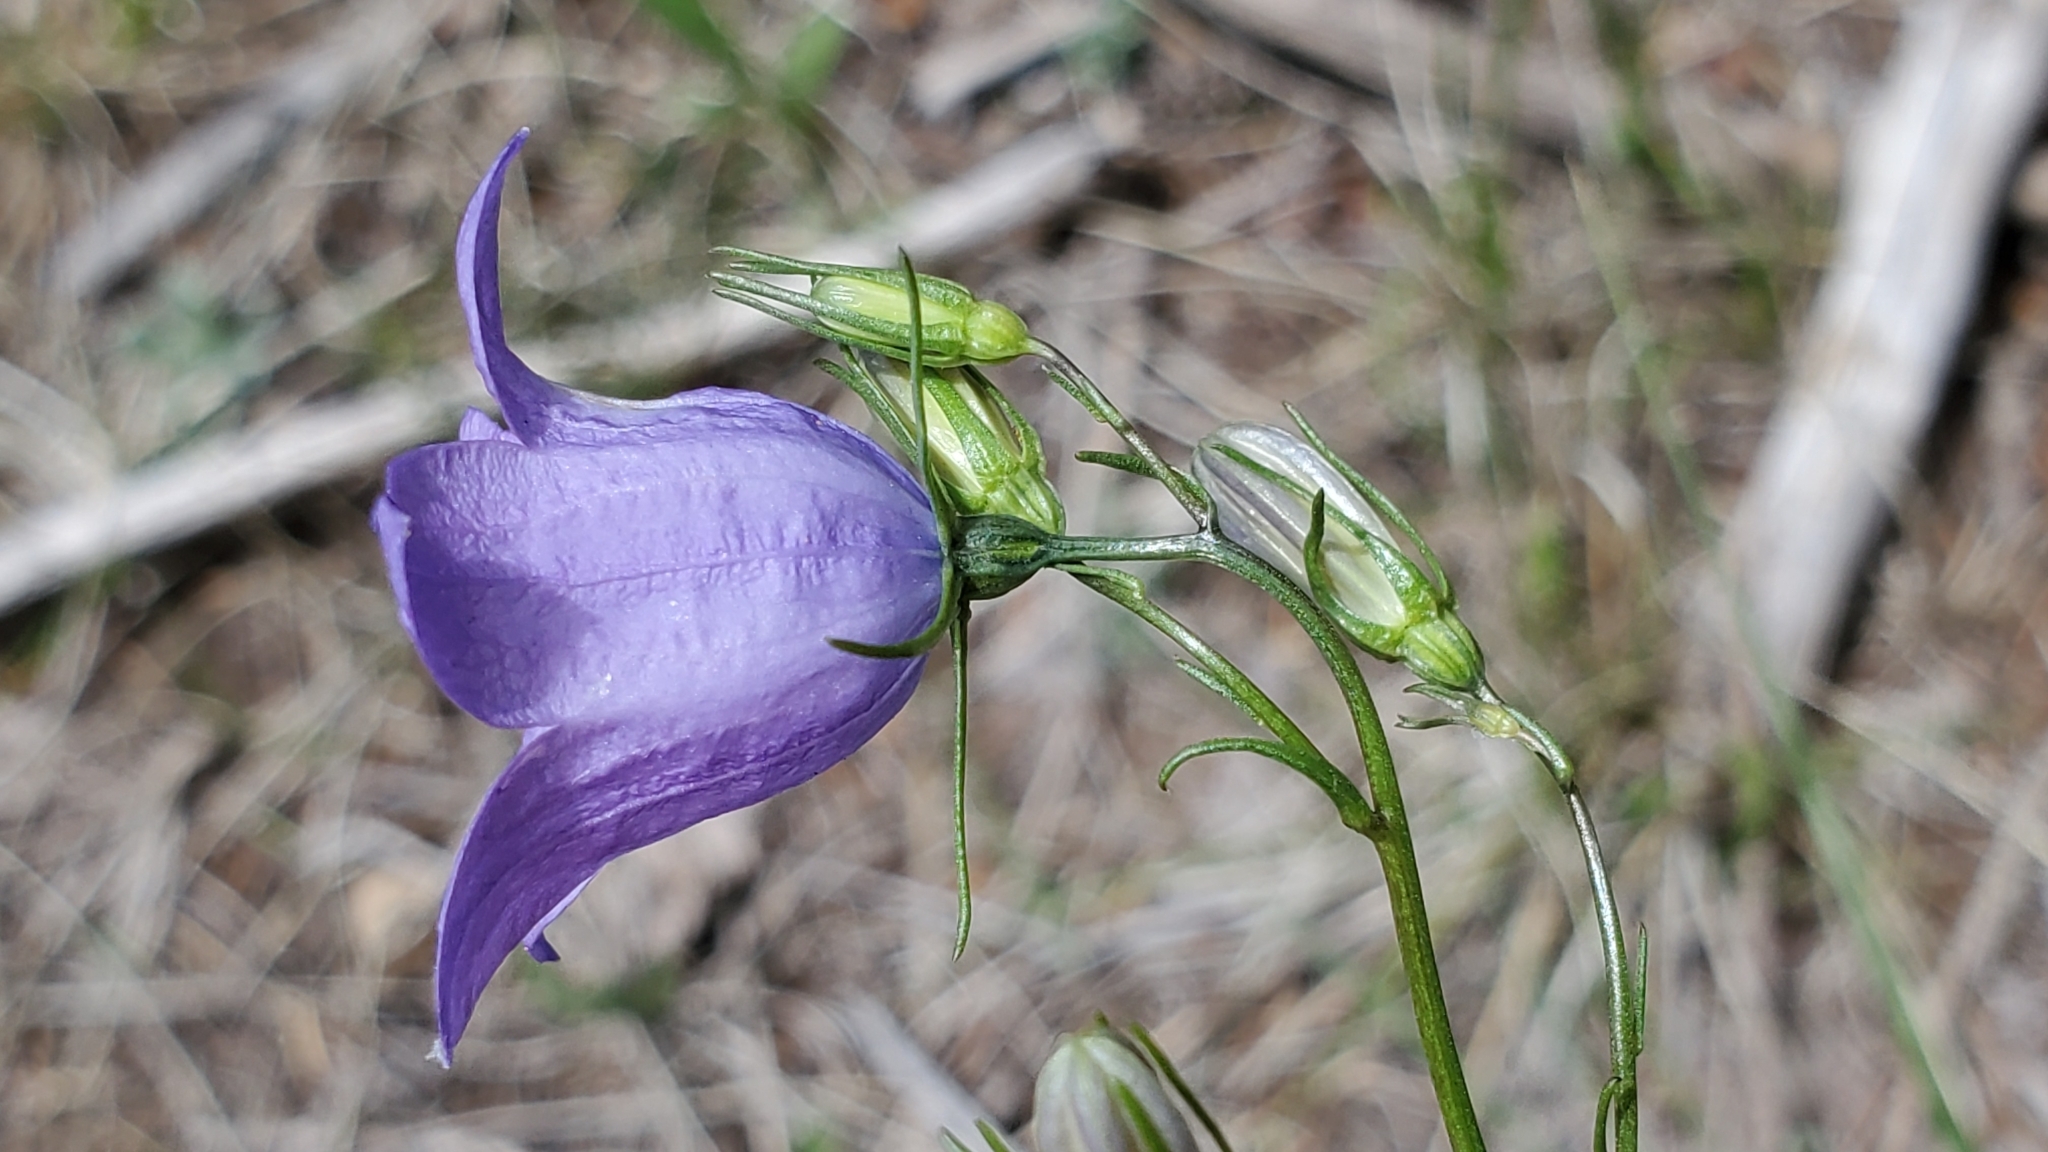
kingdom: Plantae
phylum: Tracheophyta
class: Magnoliopsida
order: Asterales
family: Campanulaceae
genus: Campanula
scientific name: Campanula petiolata
